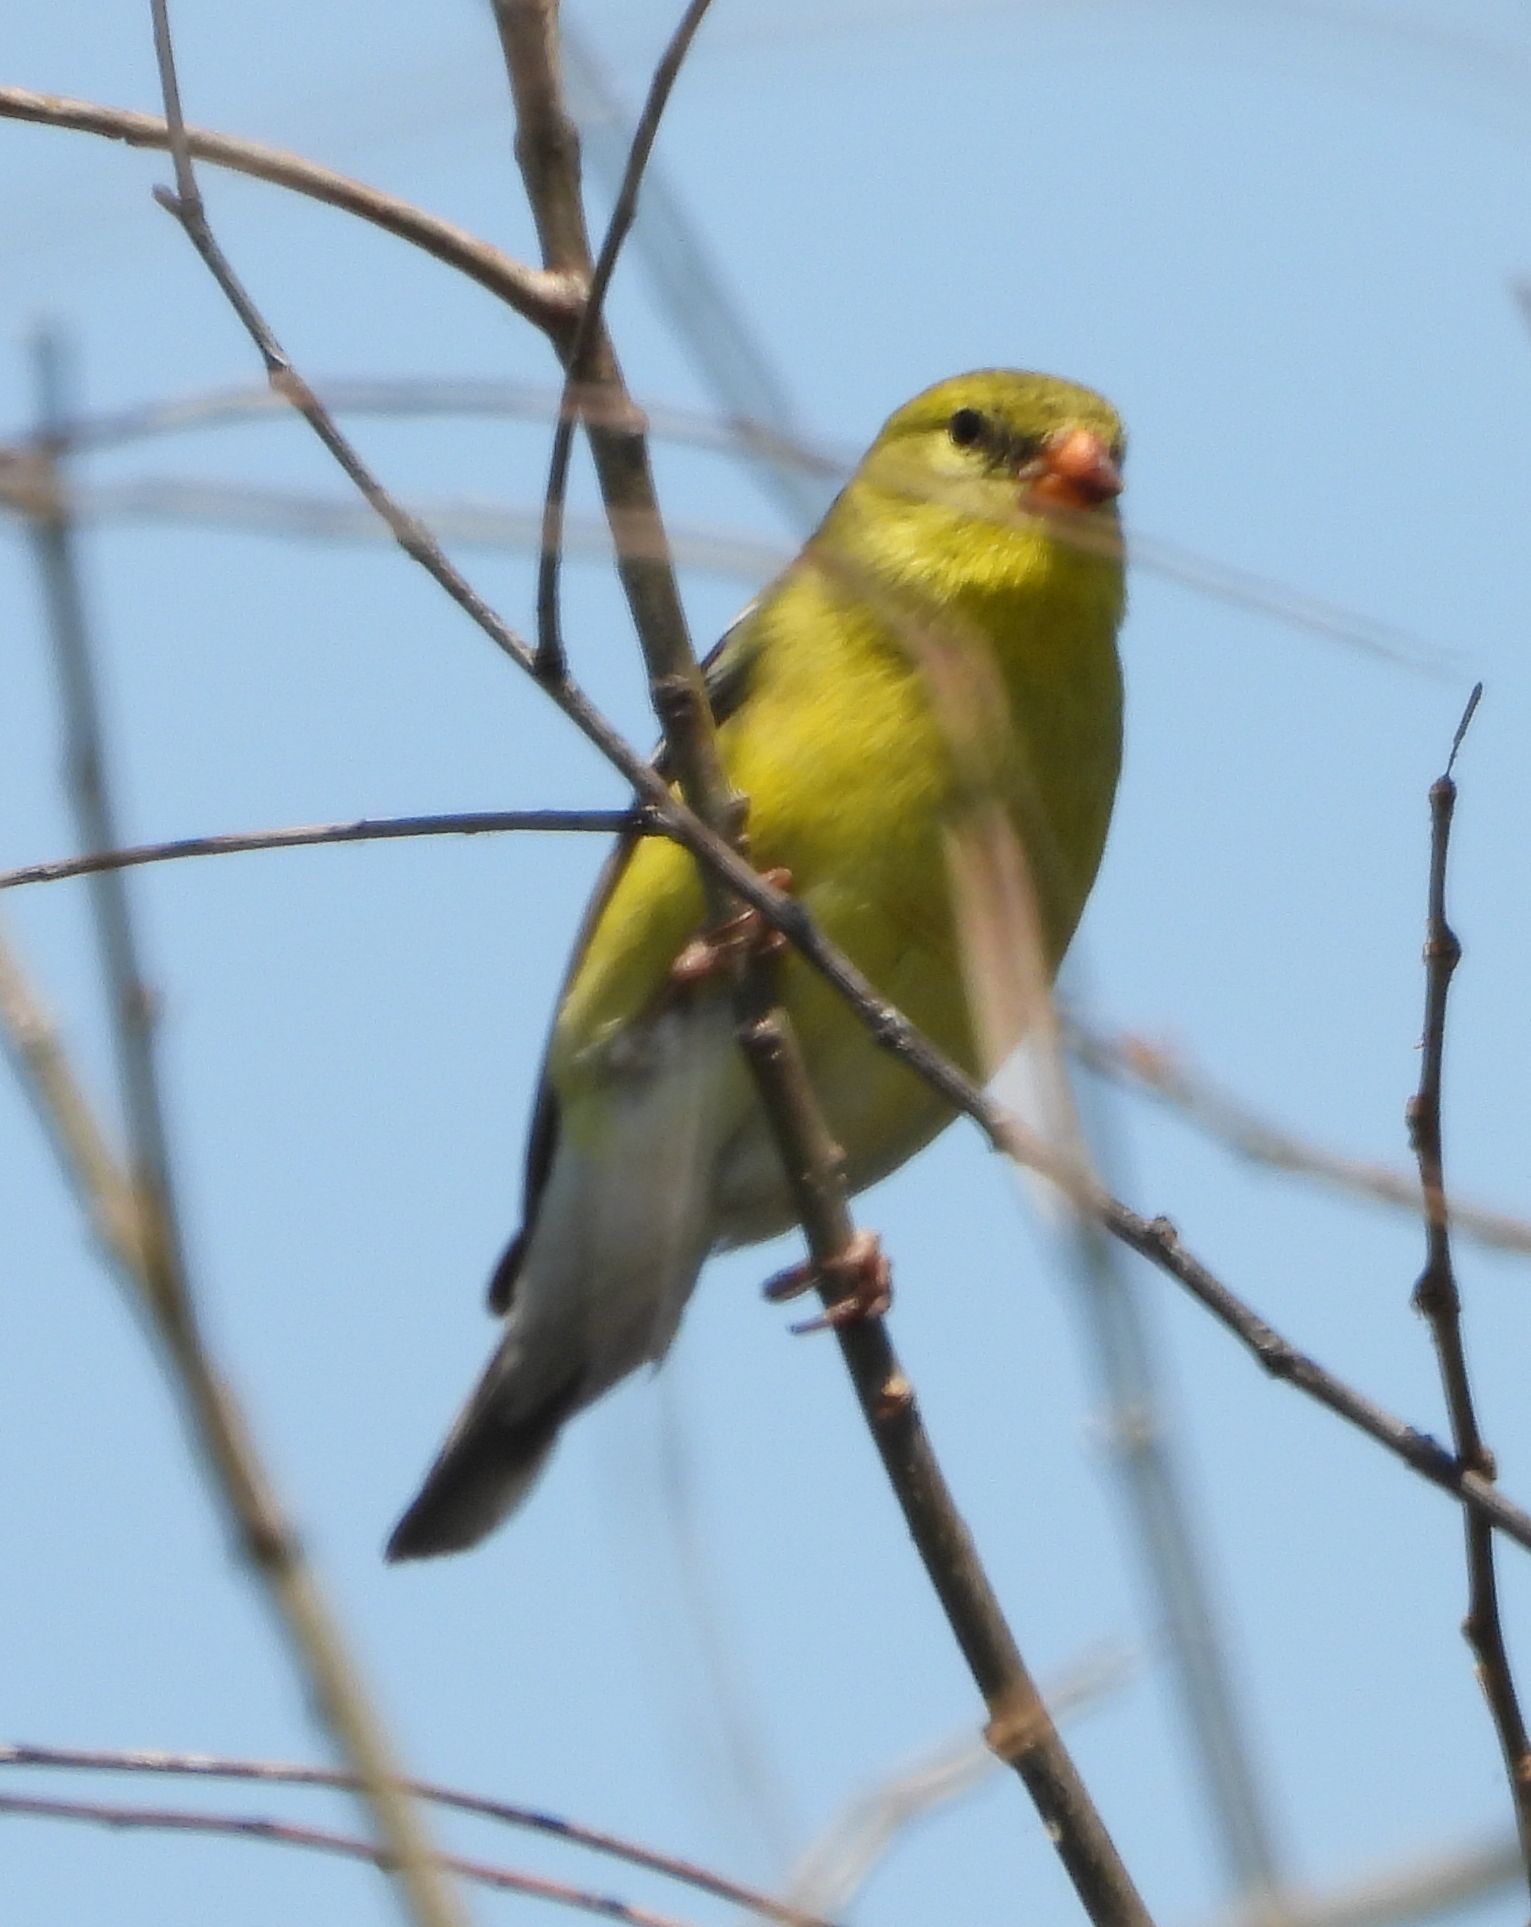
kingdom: Animalia
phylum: Chordata
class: Aves
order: Passeriformes
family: Fringillidae
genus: Spinus
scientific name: Spinus tristis
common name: American goldfinch
